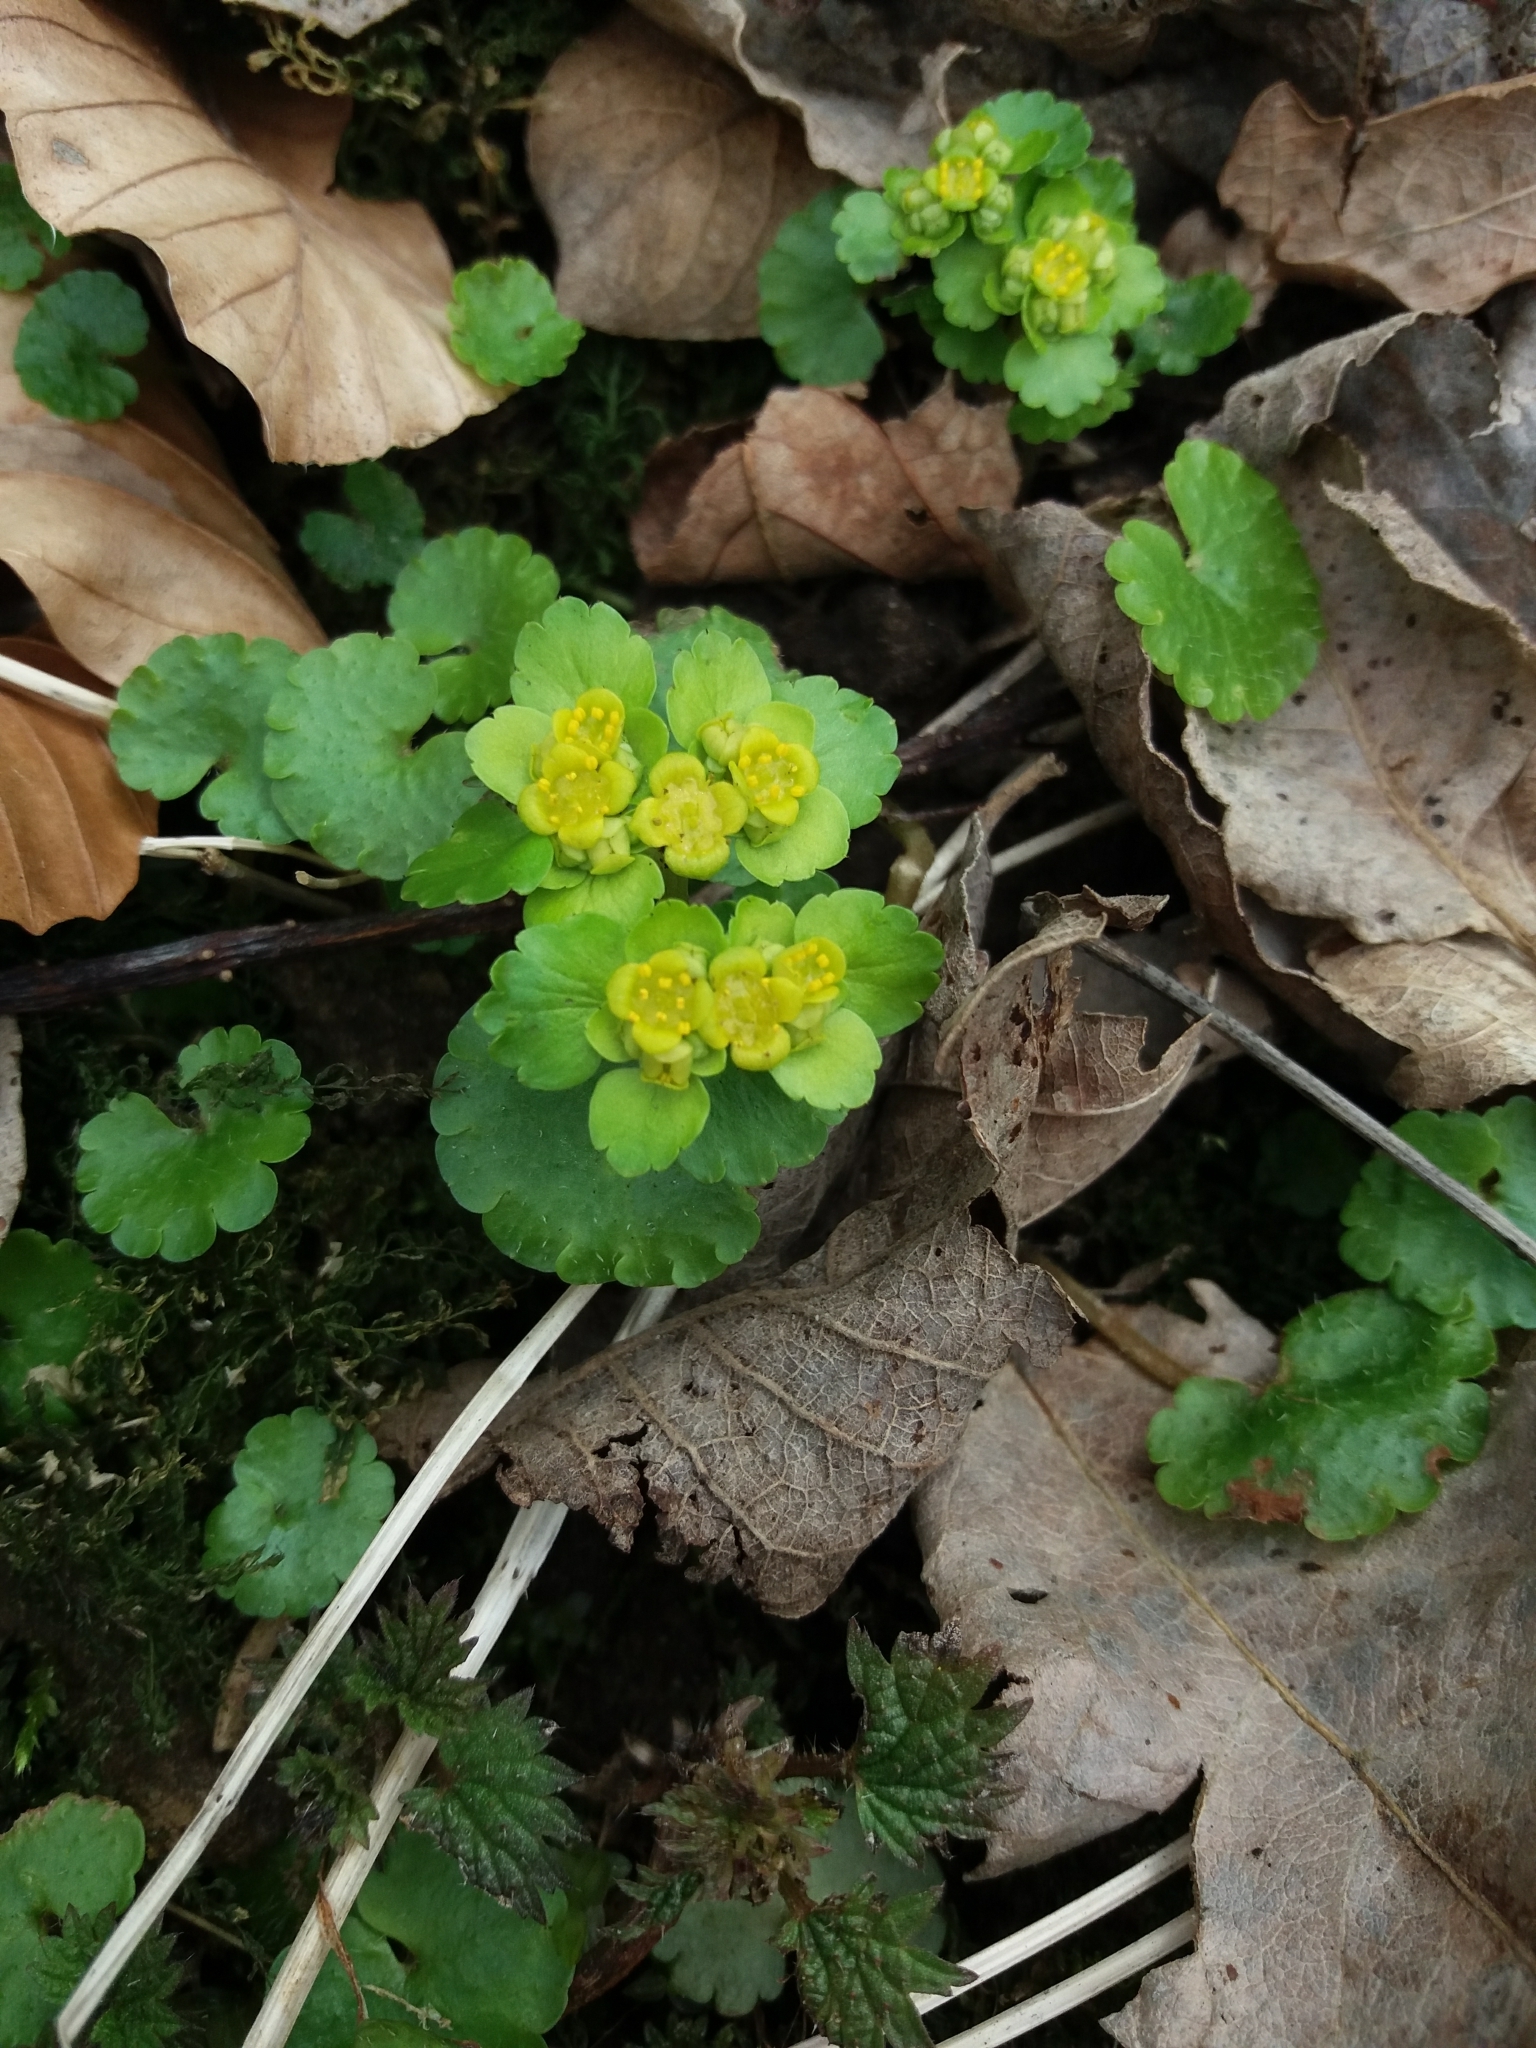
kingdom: Plantae
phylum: Tracheophyta
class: Magnoliopsida
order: Saxifragales
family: Saxifragaceae
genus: Chrysosplenium
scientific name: Chrysosplenium alternifolium
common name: Alternate-leaved golden-saxifrage
